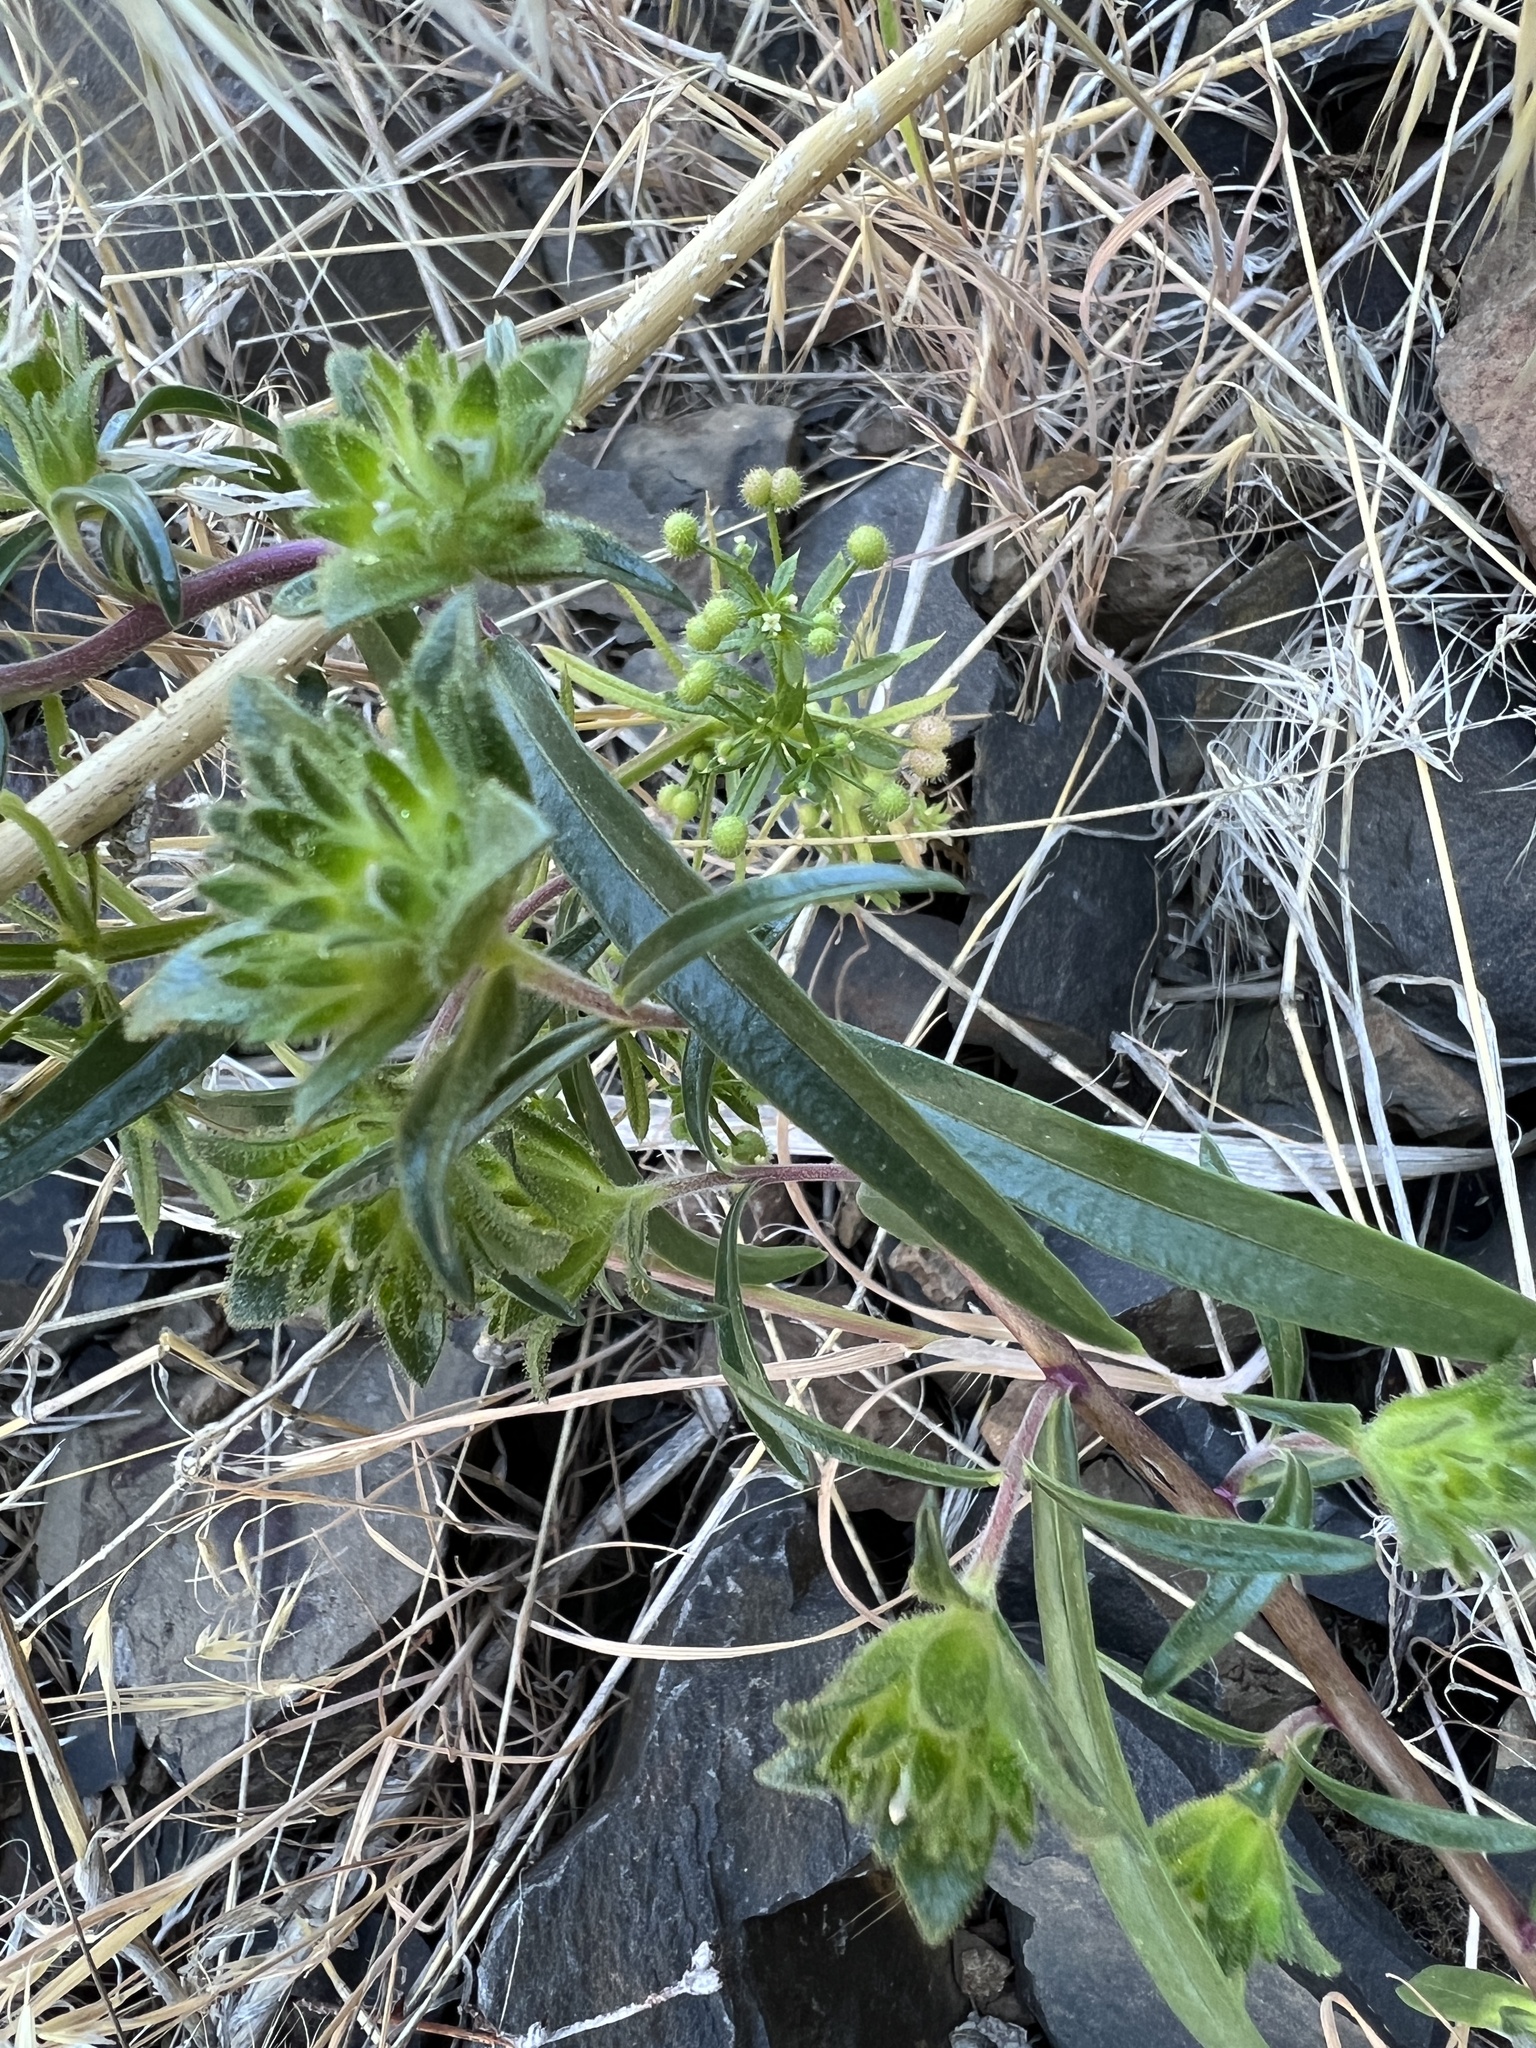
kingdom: Plantae
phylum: Tracheophyta
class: Magnoliopsida
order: Ericales
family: Polemoniaceae
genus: Collomia
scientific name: Collomia grandiflora
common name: California strawflower
